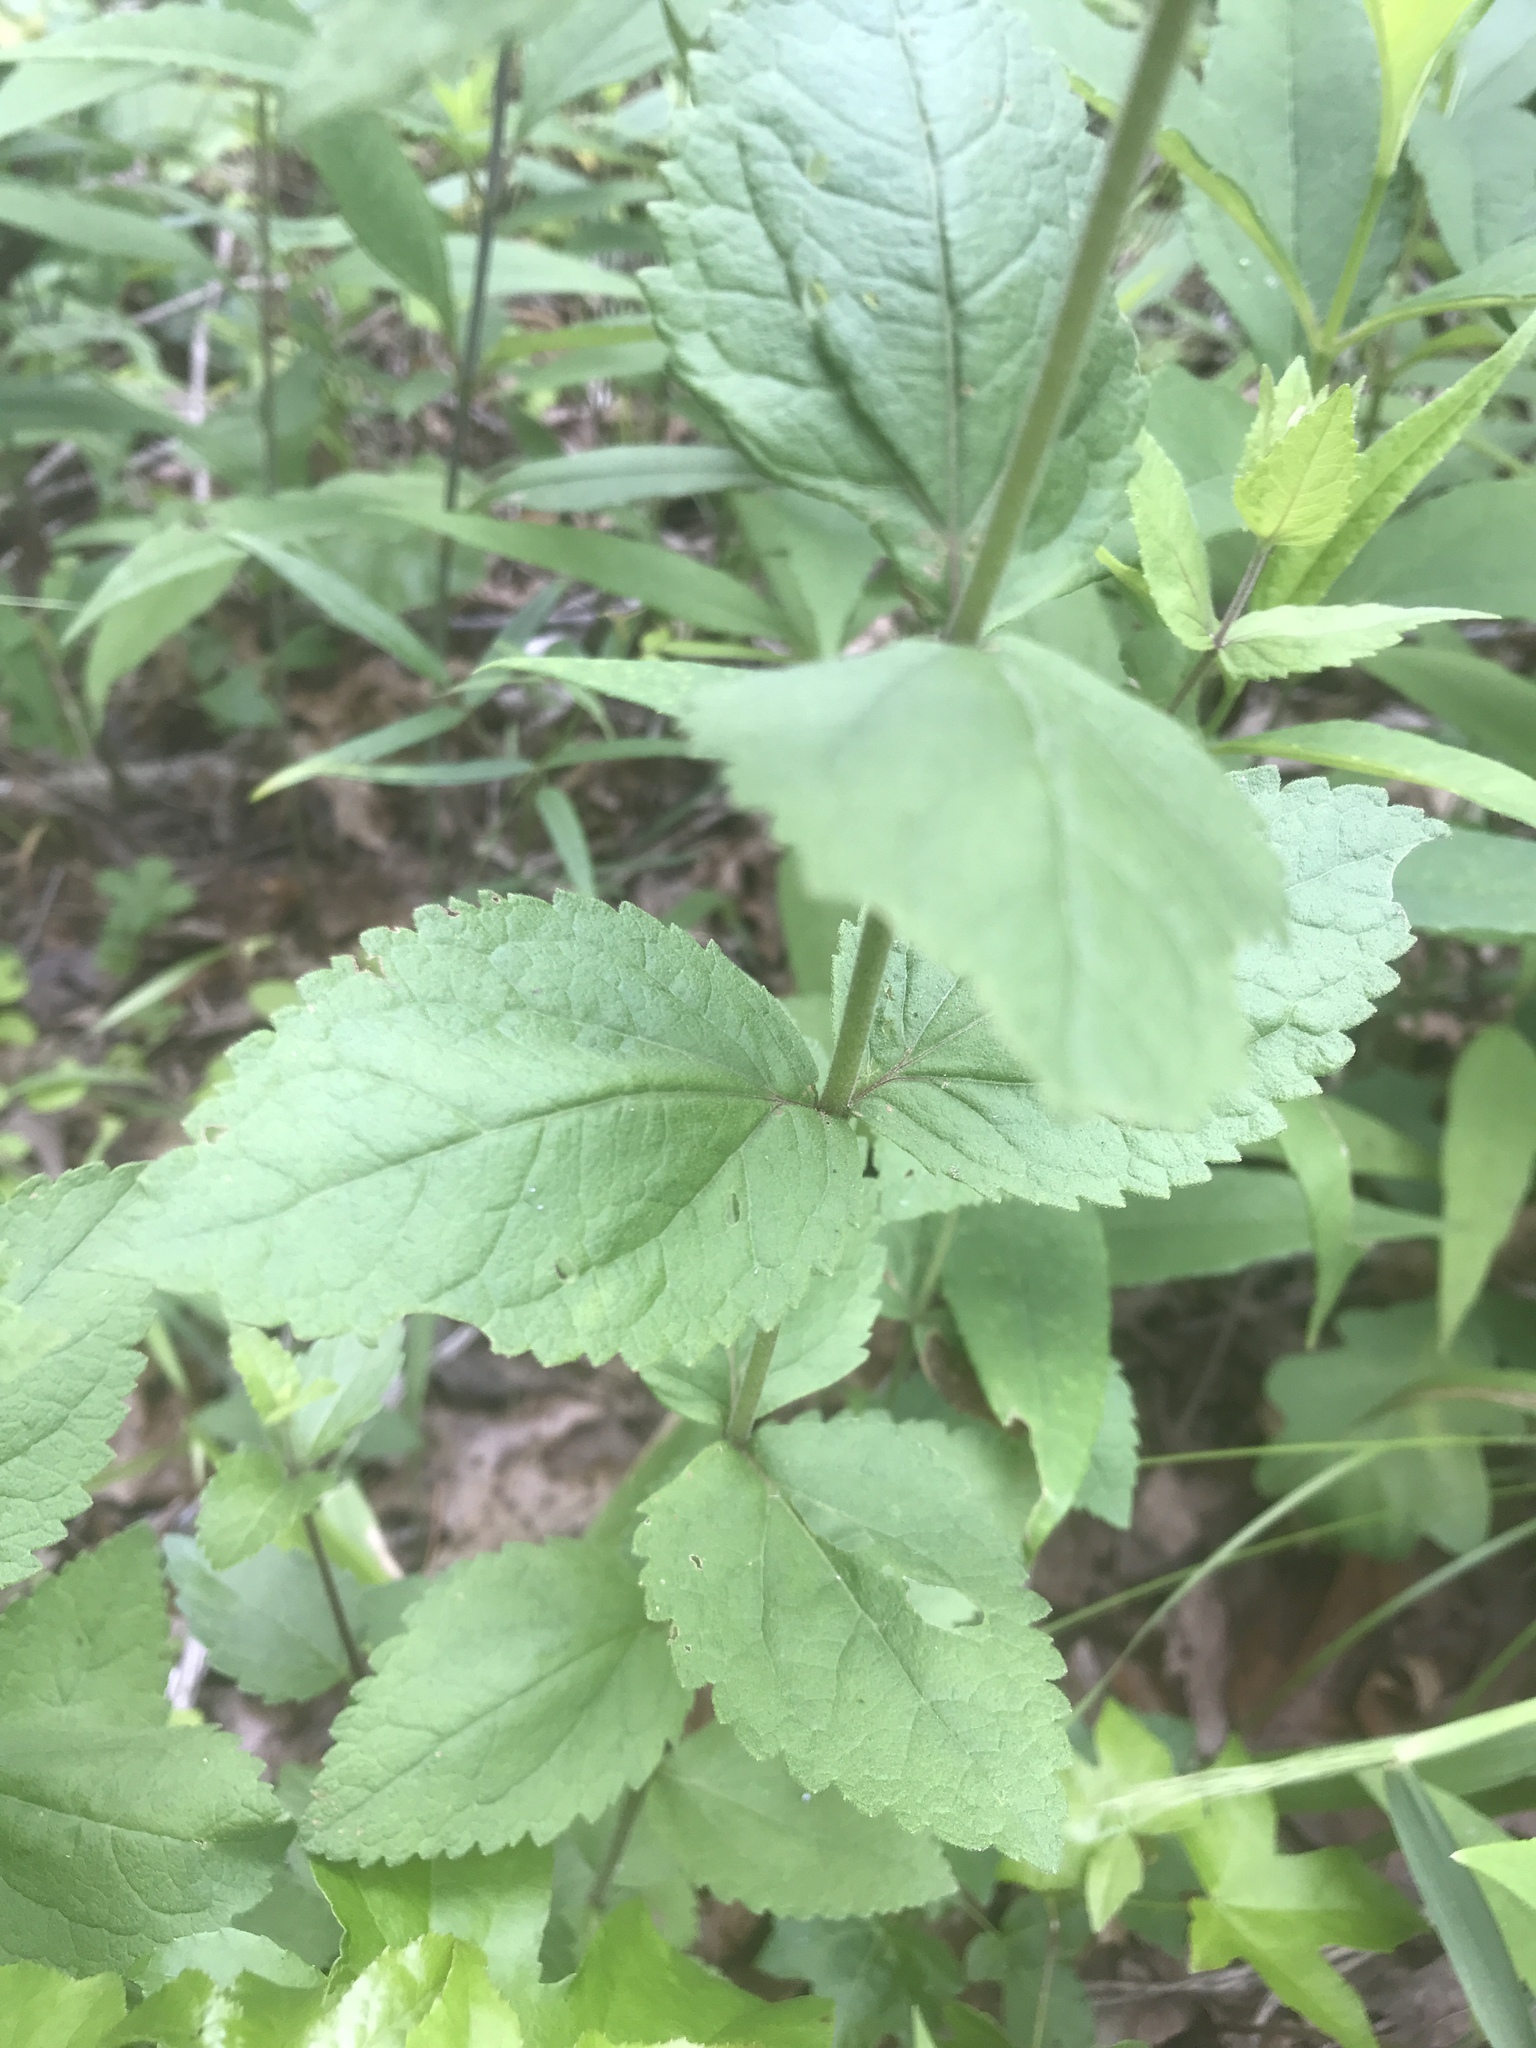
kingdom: Plantae
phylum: Tracheophyta
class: Magnoliopsida
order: Asterales
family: Asteraceae
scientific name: Asteraceae
